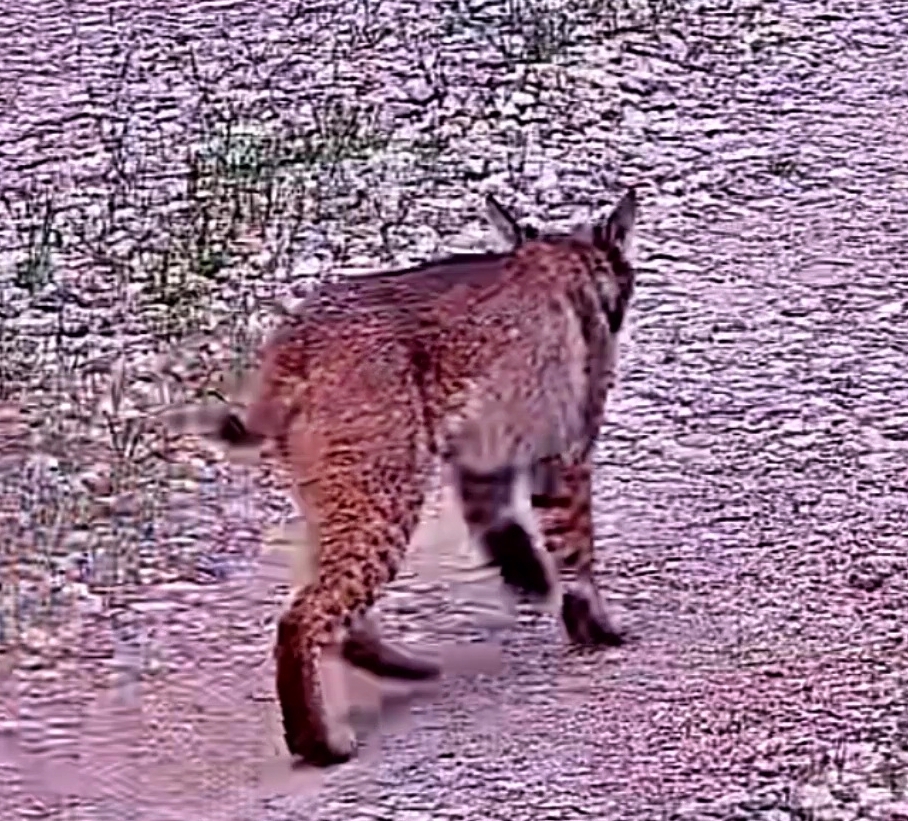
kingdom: Animalia
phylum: Chordata
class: Mammalia
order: Carnivora
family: Felidae
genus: Lynx
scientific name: Lynx rufus
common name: Bobcat
